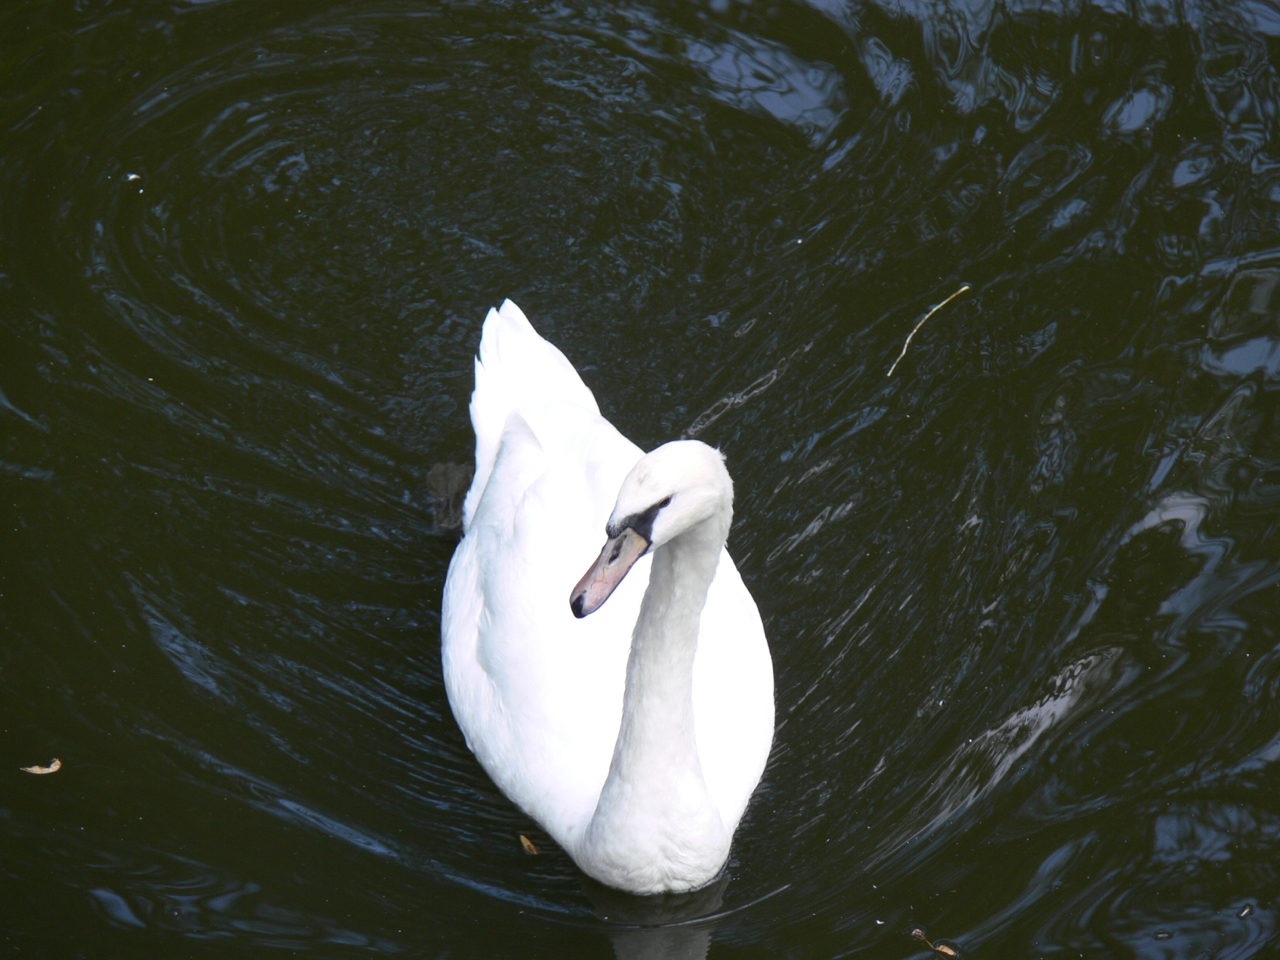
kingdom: Animalia
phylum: Chordata
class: Aves
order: Anseriformes
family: Anatidae
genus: Cygnus
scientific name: Cygnus olor
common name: Mute swan
